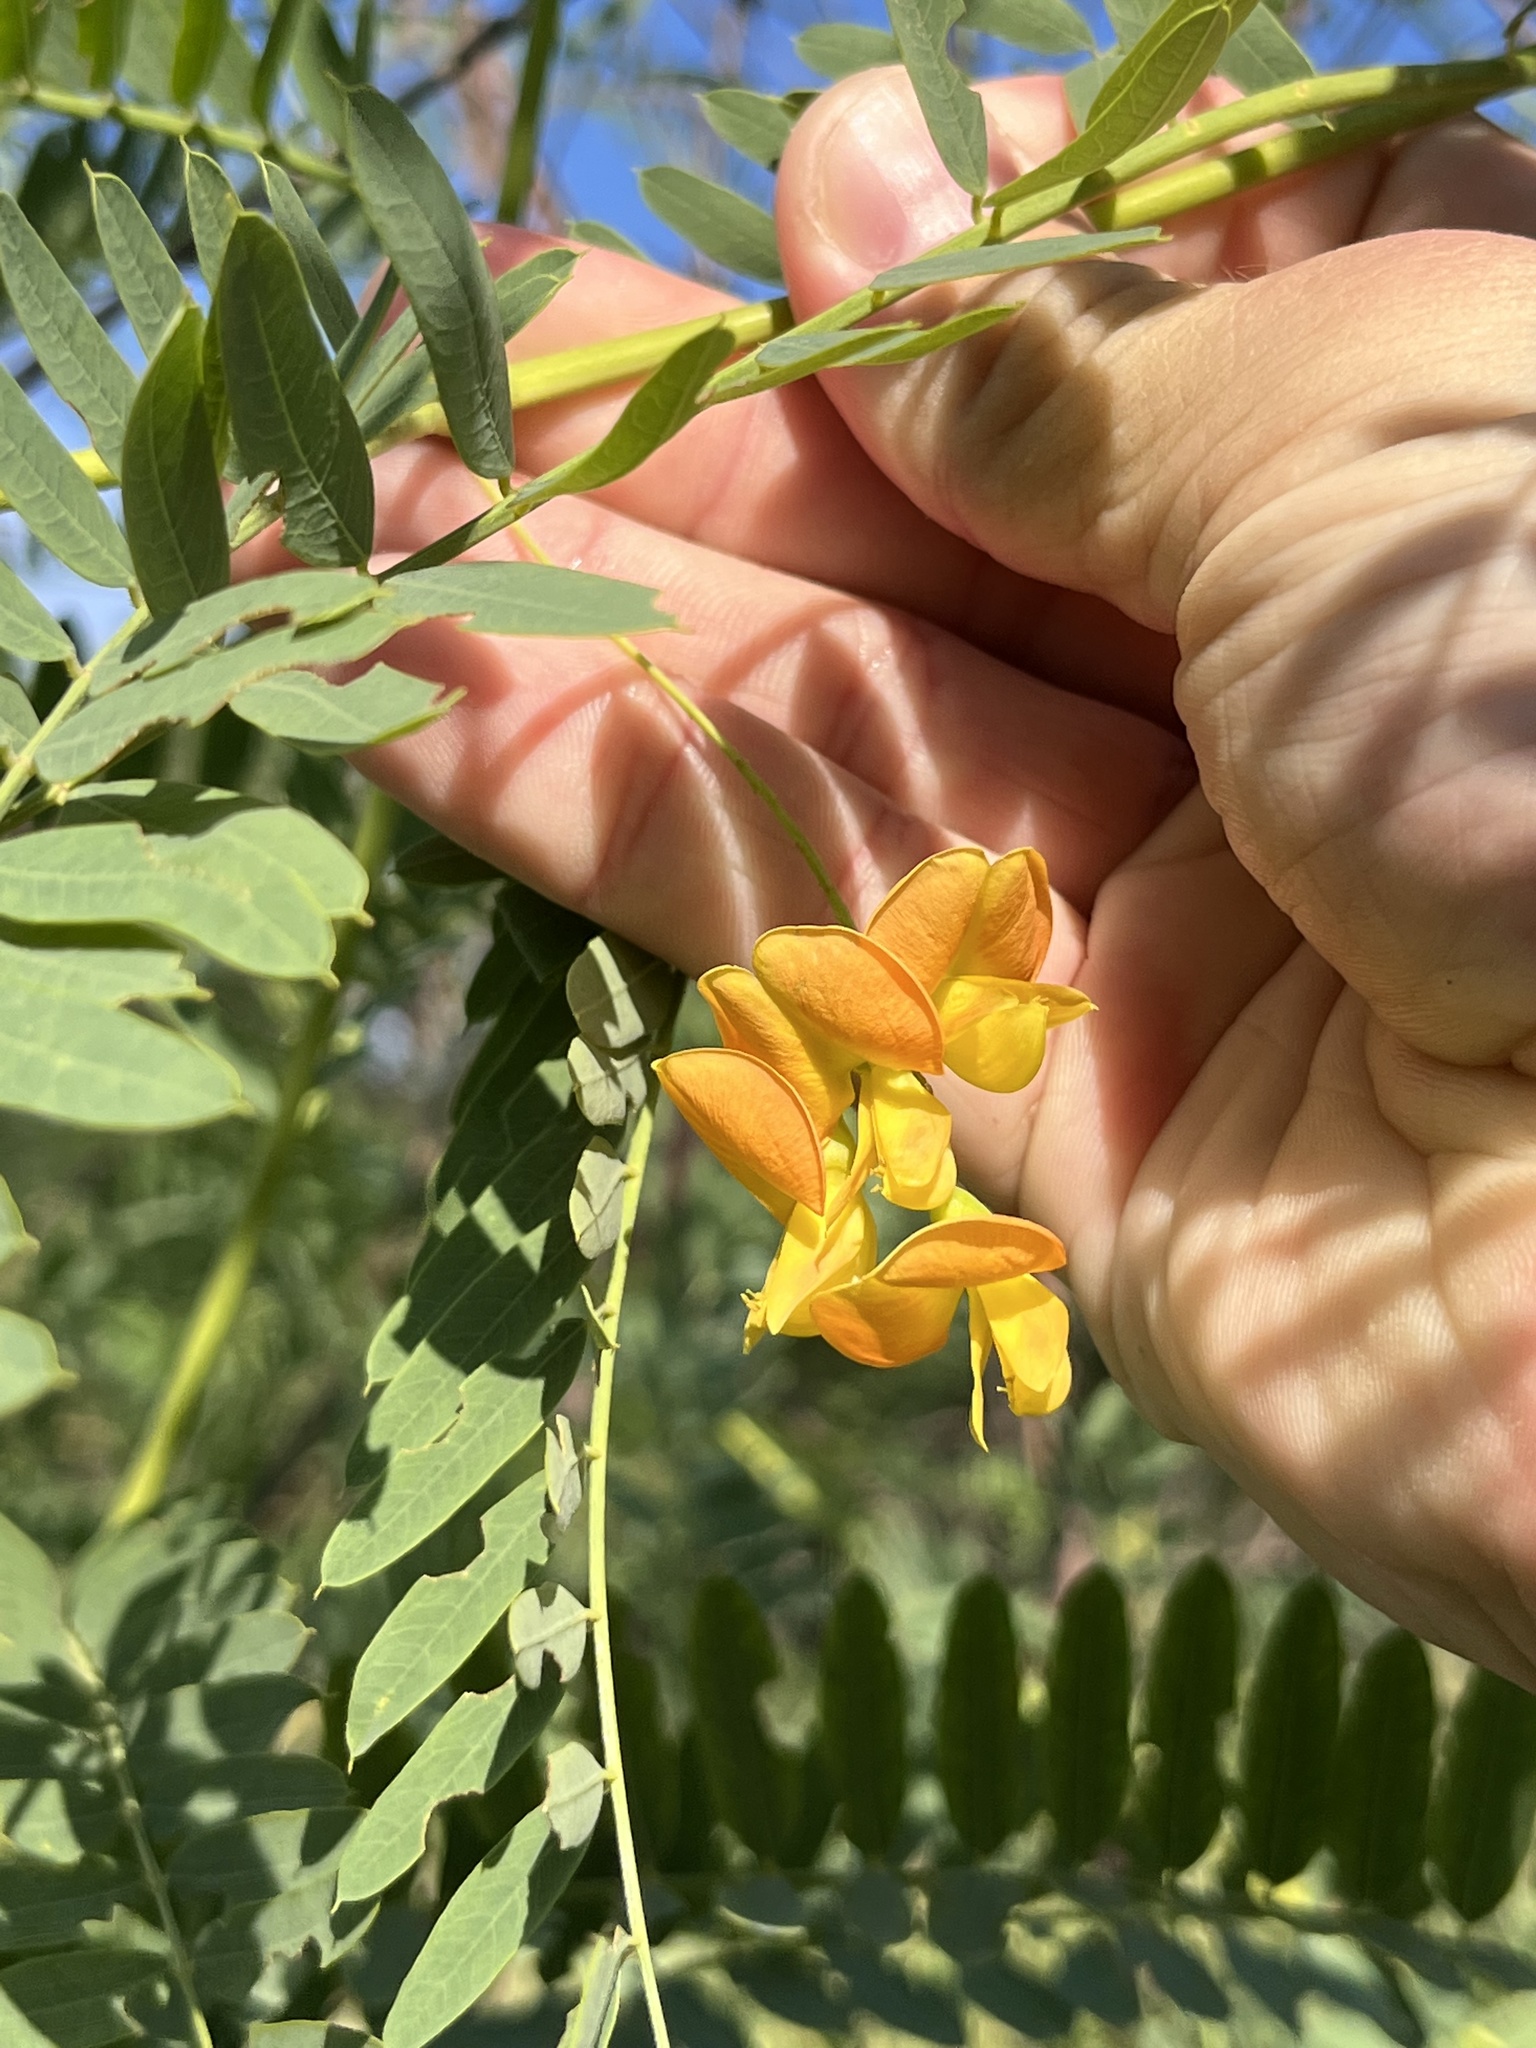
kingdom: Plantae
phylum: Tracheophyta
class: Magnoliopsida
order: Fabales
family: Fabaceae
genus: Sesbania
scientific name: Sesbania drummondii
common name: Poison-bean
